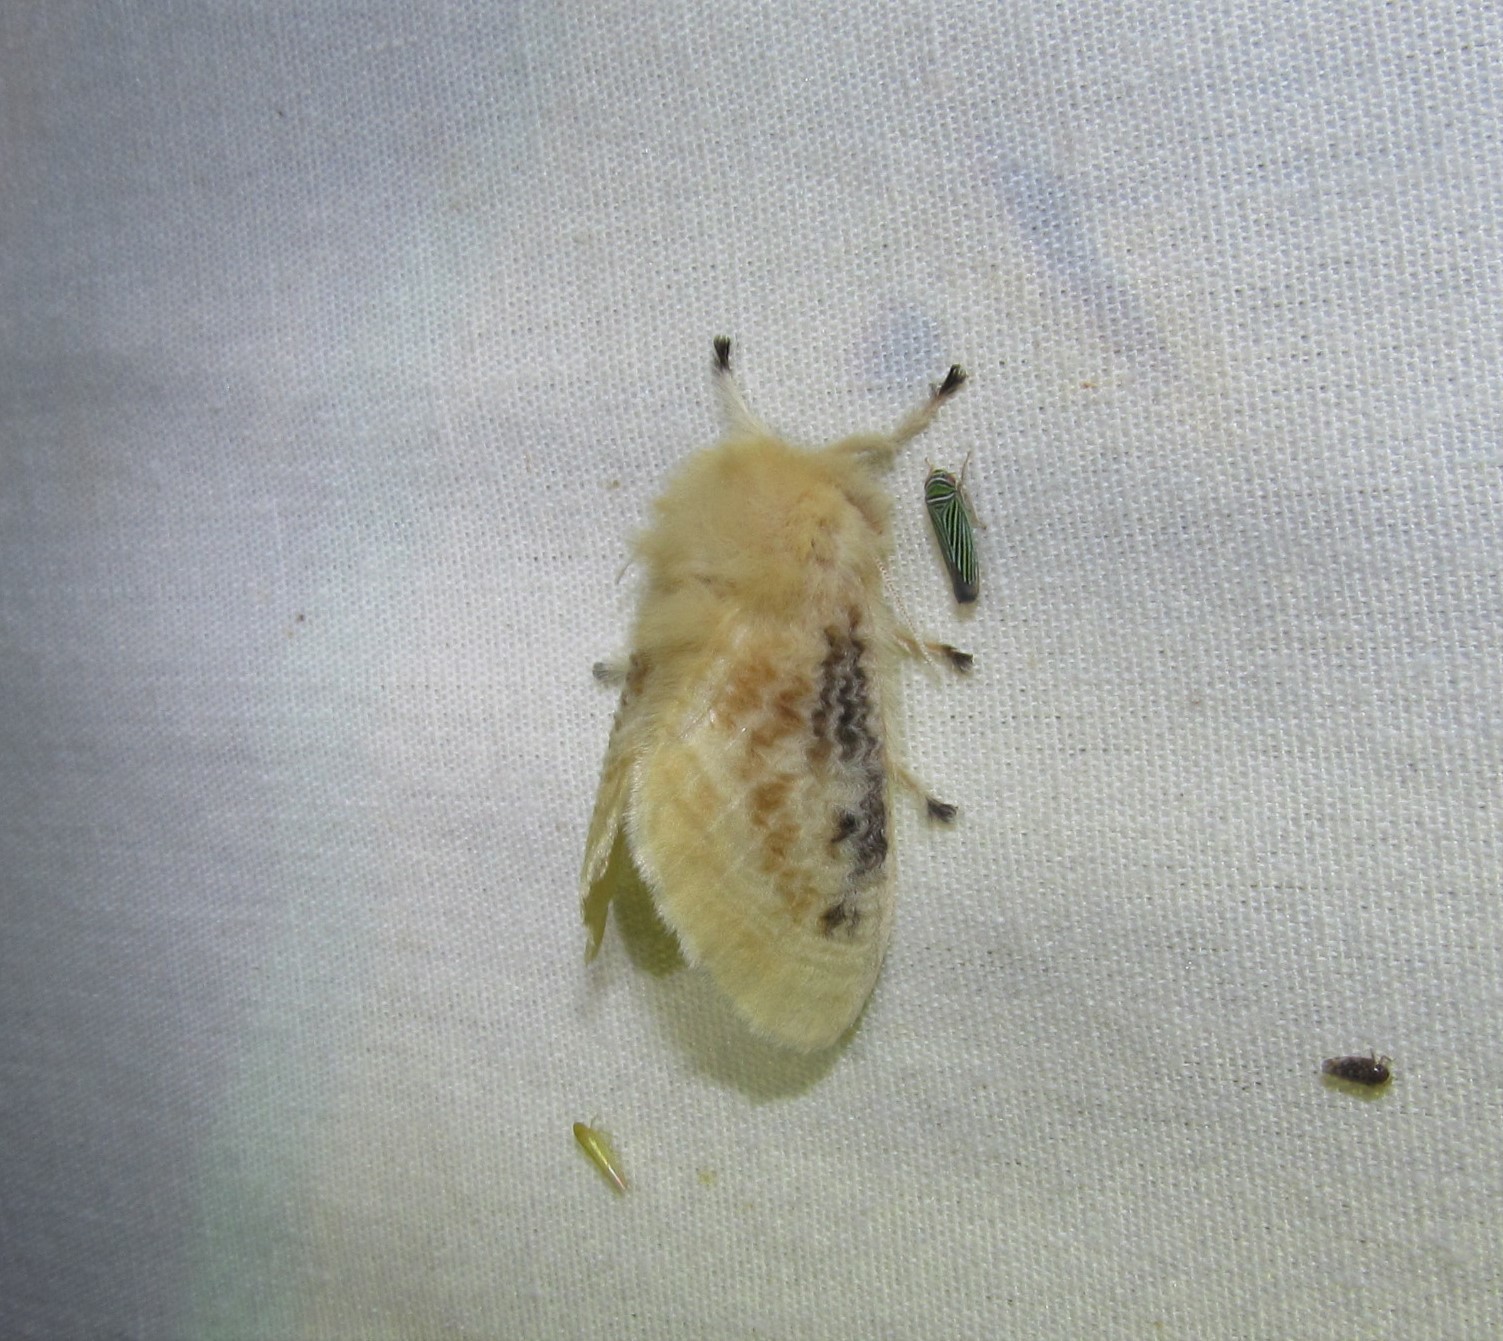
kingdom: Animalia
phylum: Arthropoda
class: Insecta
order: Lepidoptera
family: Megalopygidae
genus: Megalopyge
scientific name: Megalopyge crispata
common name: Black-waved flannel moth
